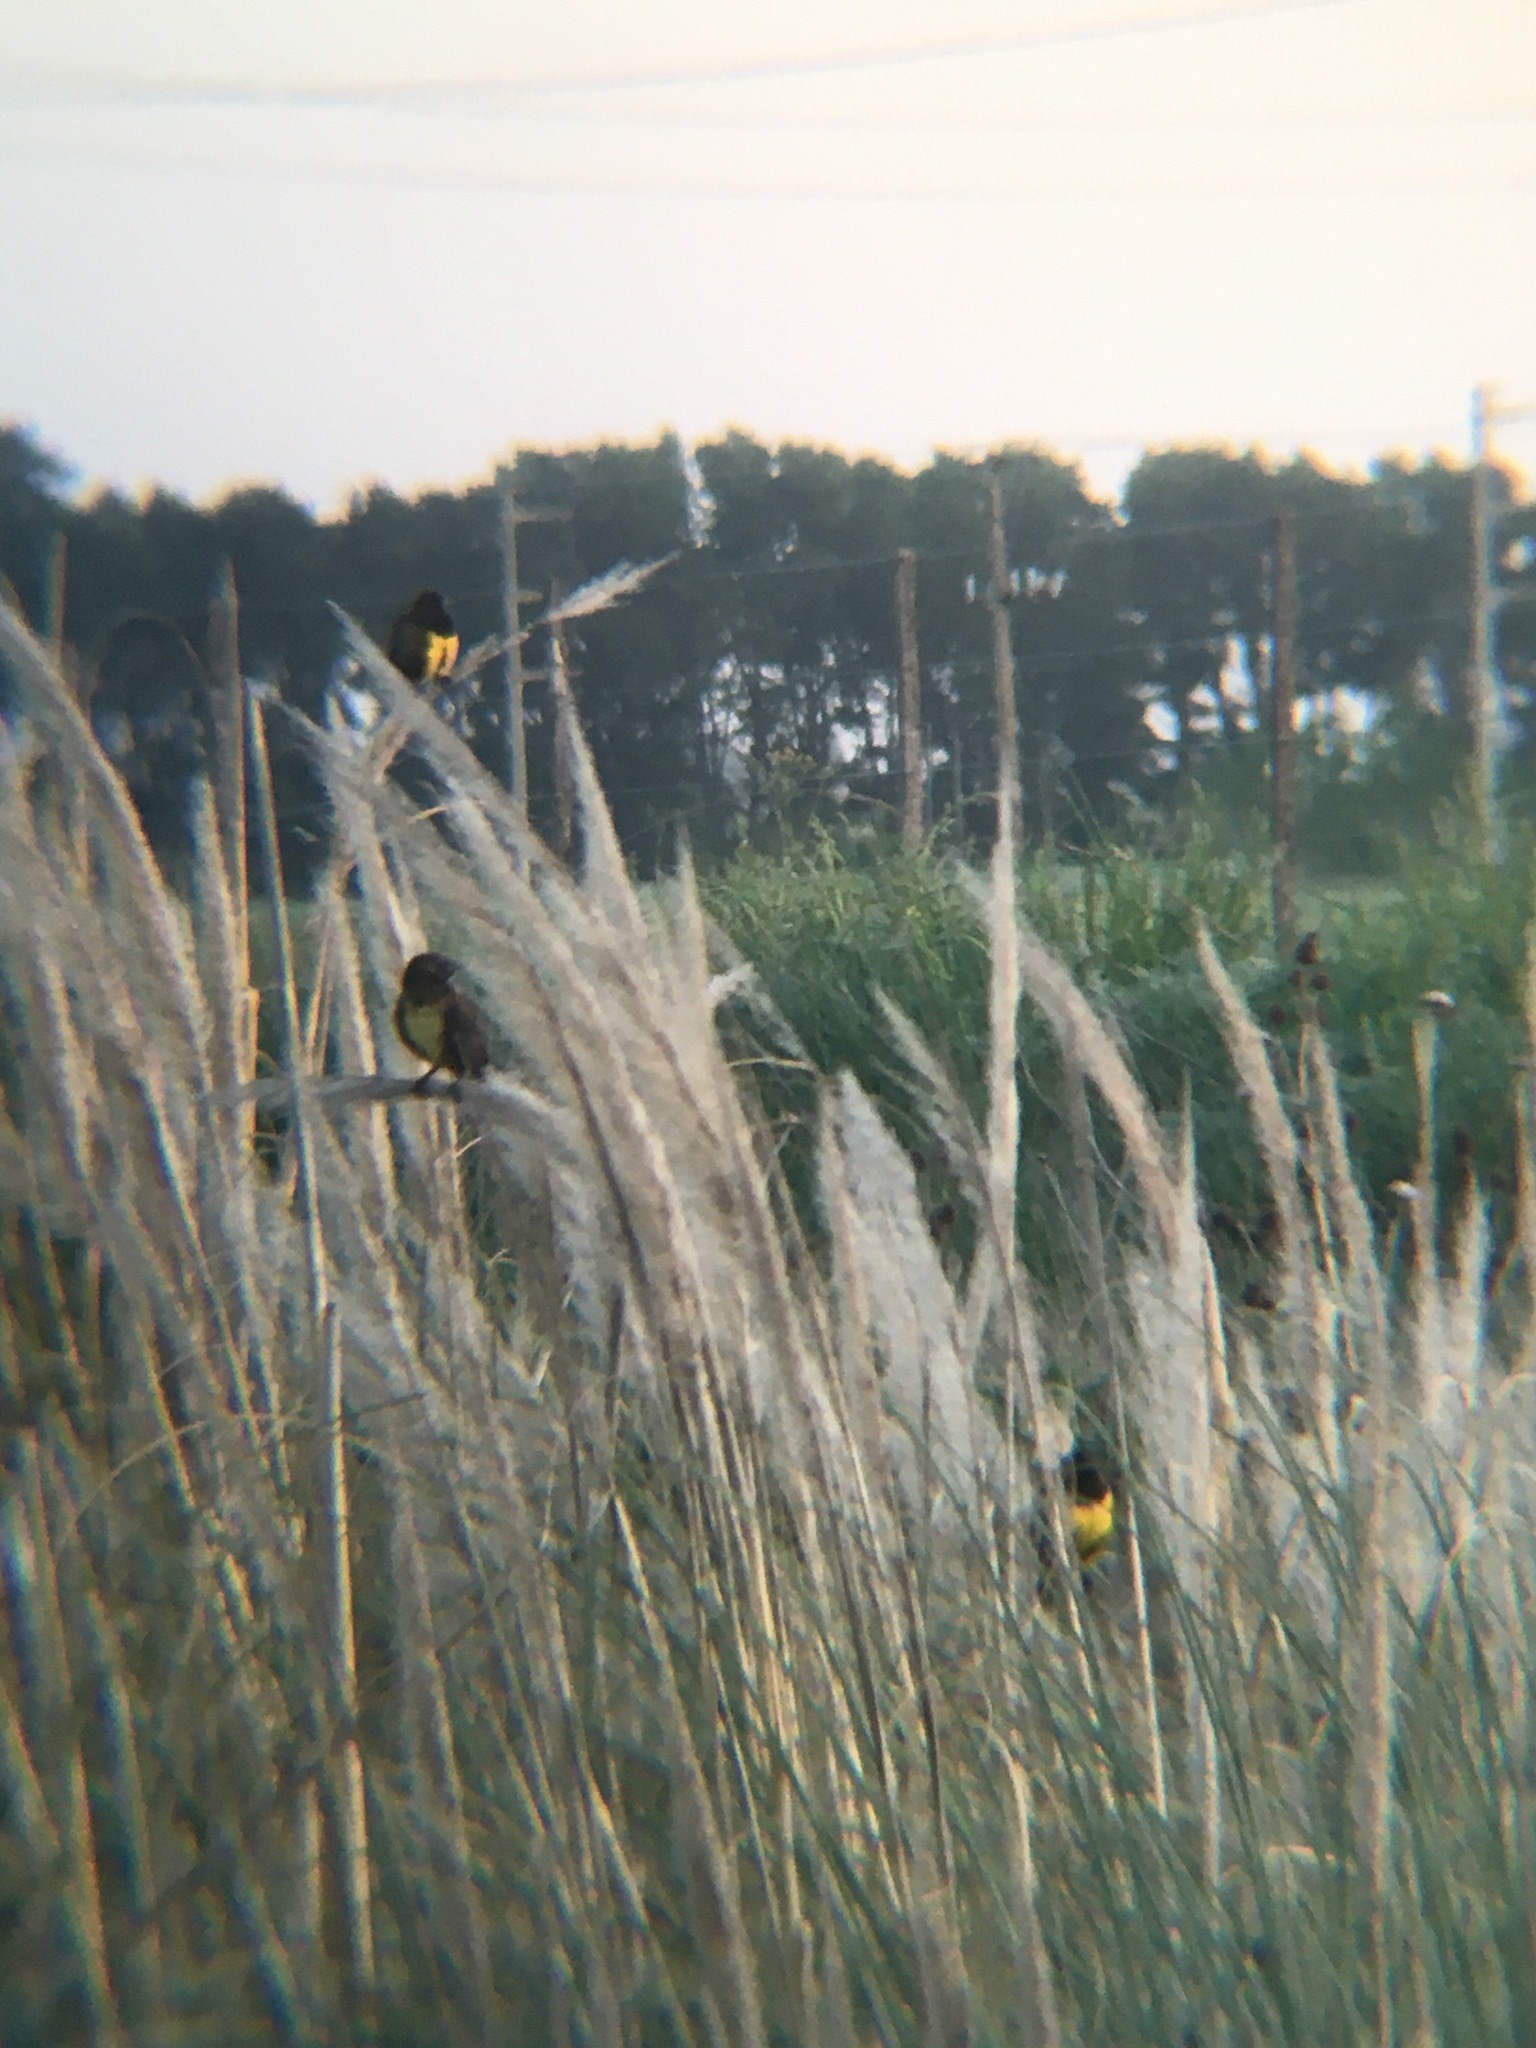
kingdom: Animalia
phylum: Chordata
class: Aves
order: Passeriformes
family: Icteridae
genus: Pseudoleistes
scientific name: Pseudoleistes virescens
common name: Brown-and-yellow marshbird
